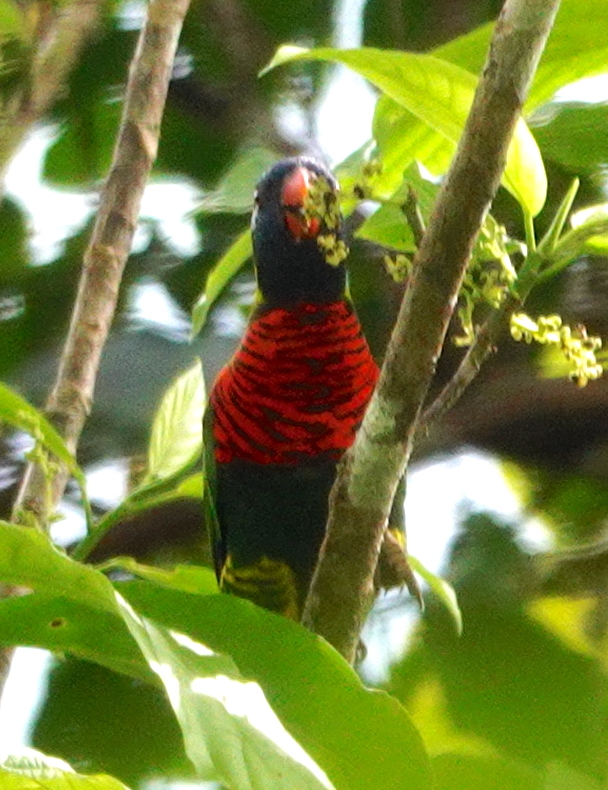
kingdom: Animalia
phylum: Chordata
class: Aves
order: Psittaciformes
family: Psittacidae
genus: Trichoglossus
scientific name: Trichoglossus haematodus
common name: Coconut lorikeet
